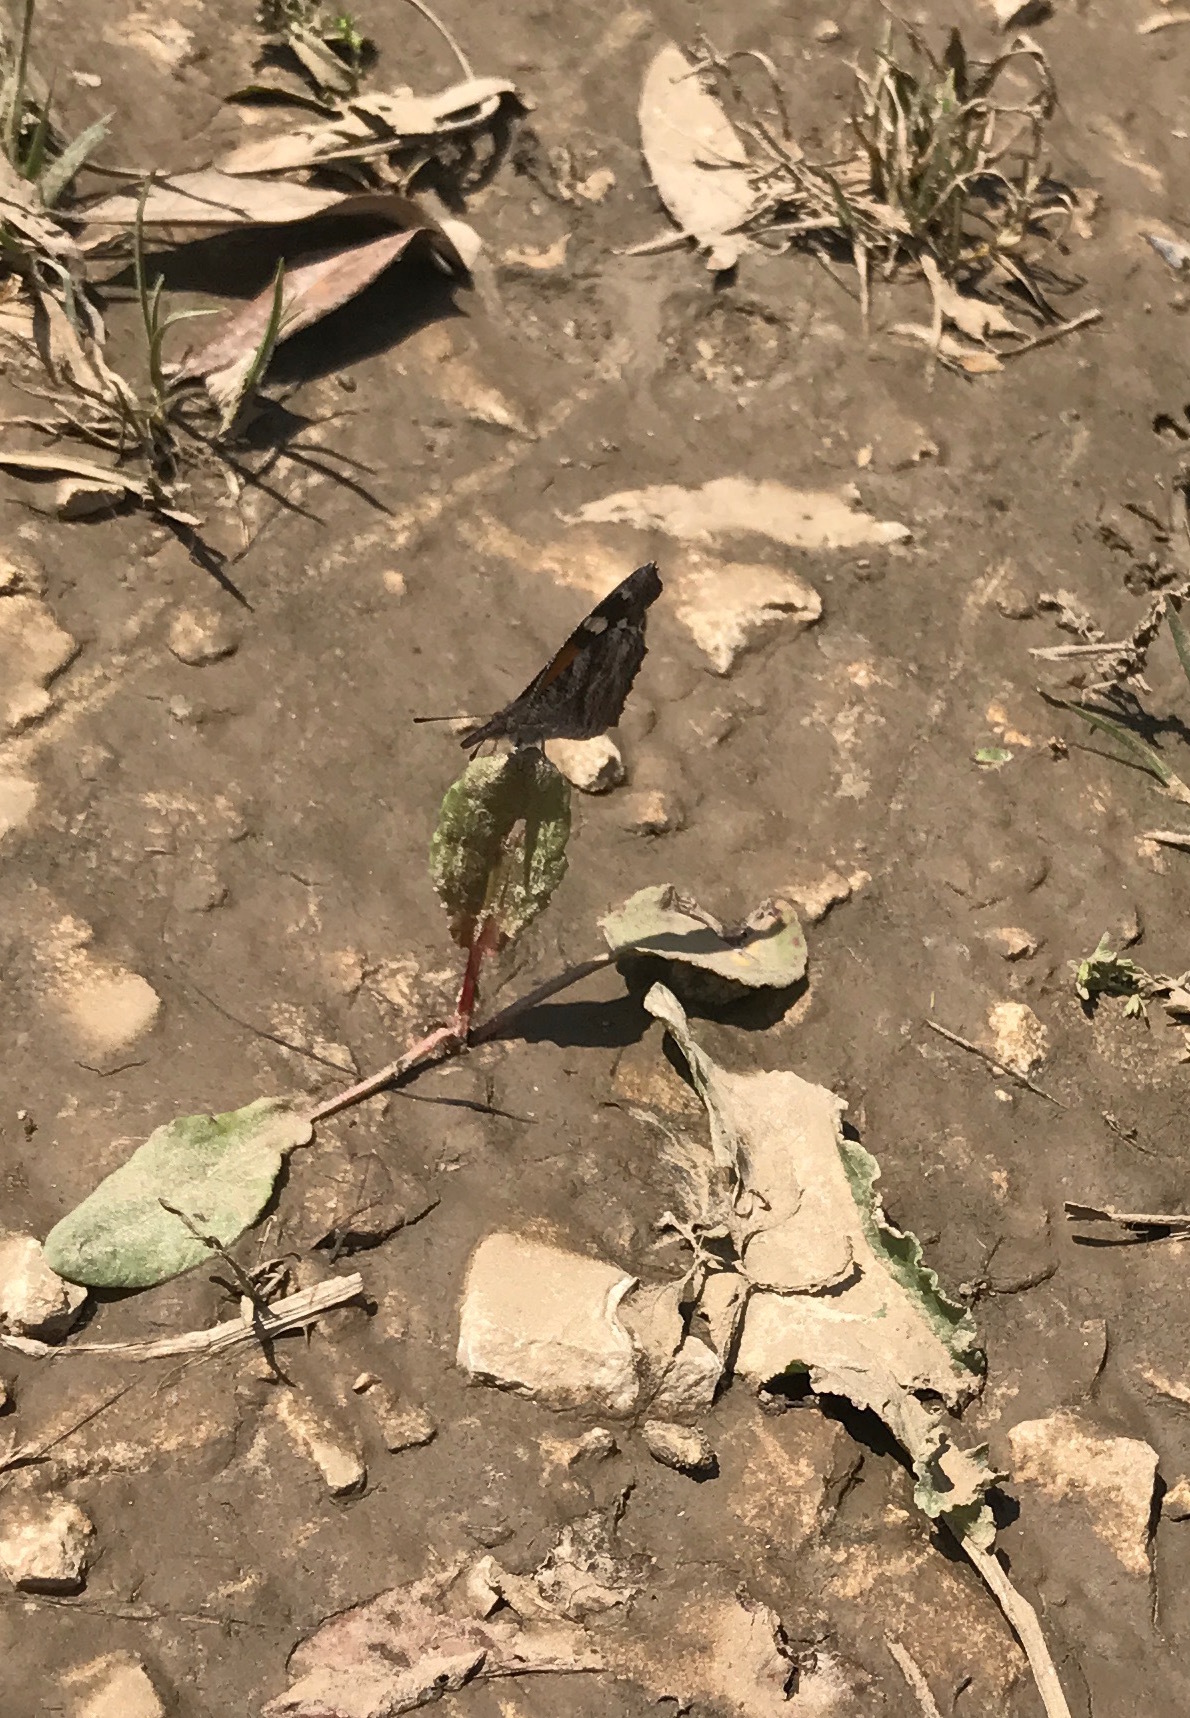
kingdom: Animalia
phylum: Arthropoda
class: Insecta
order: Lepidoptera
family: Nymphalidae
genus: Libytheana
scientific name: Libytheana carinenta
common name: American snout
